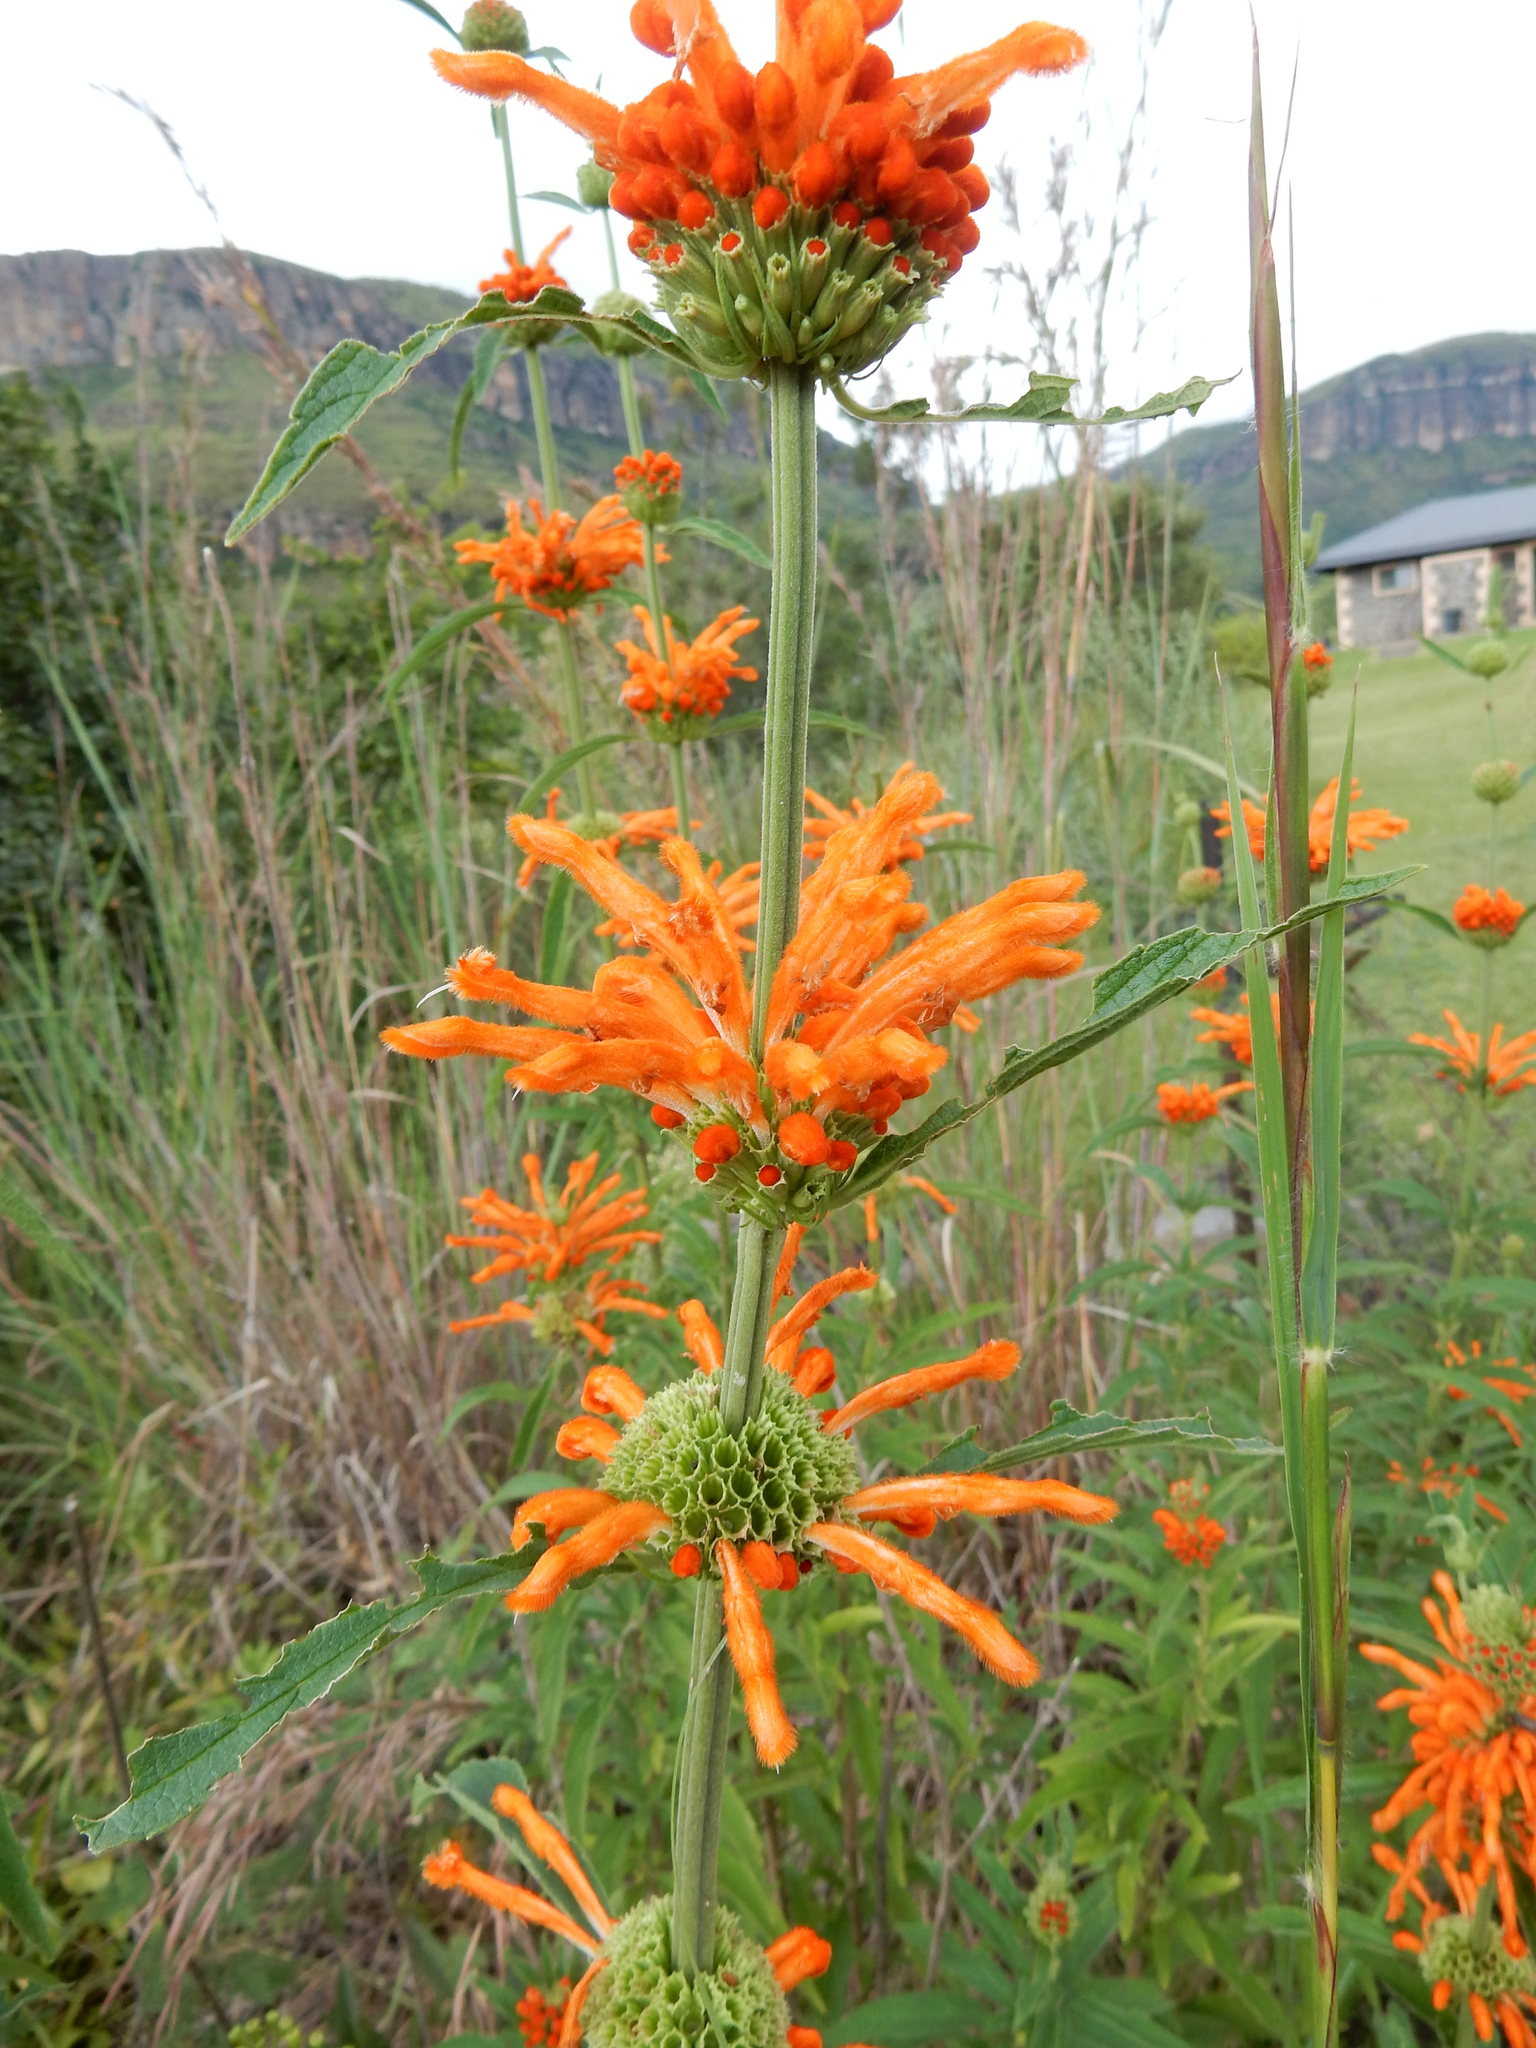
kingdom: Plantae
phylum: Tracheophyta
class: Magnoliopsida
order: Lamiales
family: Lamiaceae
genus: Leonotis
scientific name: Leonotis leonurus
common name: Lion's ear
